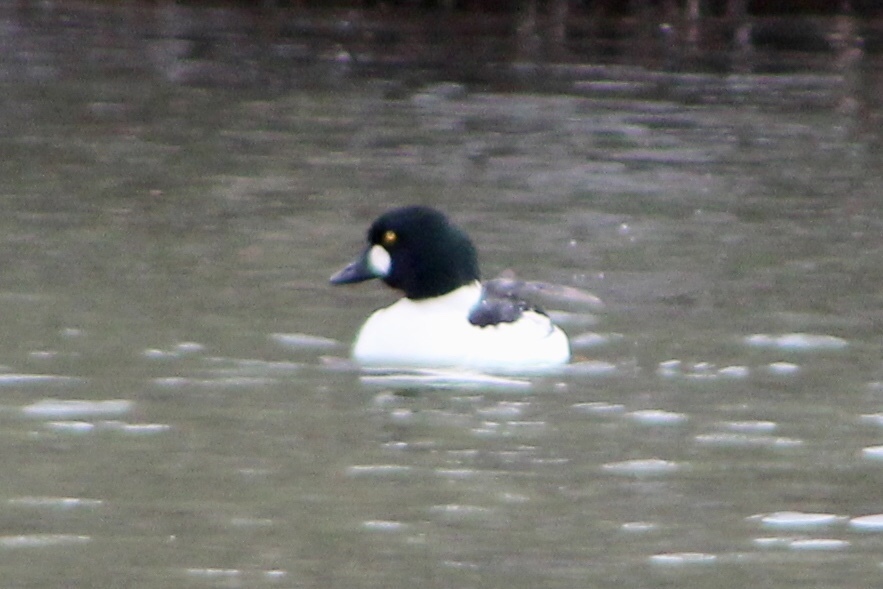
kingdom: Animalia
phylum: Chordata
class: Aves
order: Anseriformes
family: Anatidae
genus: Bucephala
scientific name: Bucephala clangula
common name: Common goldeneye
